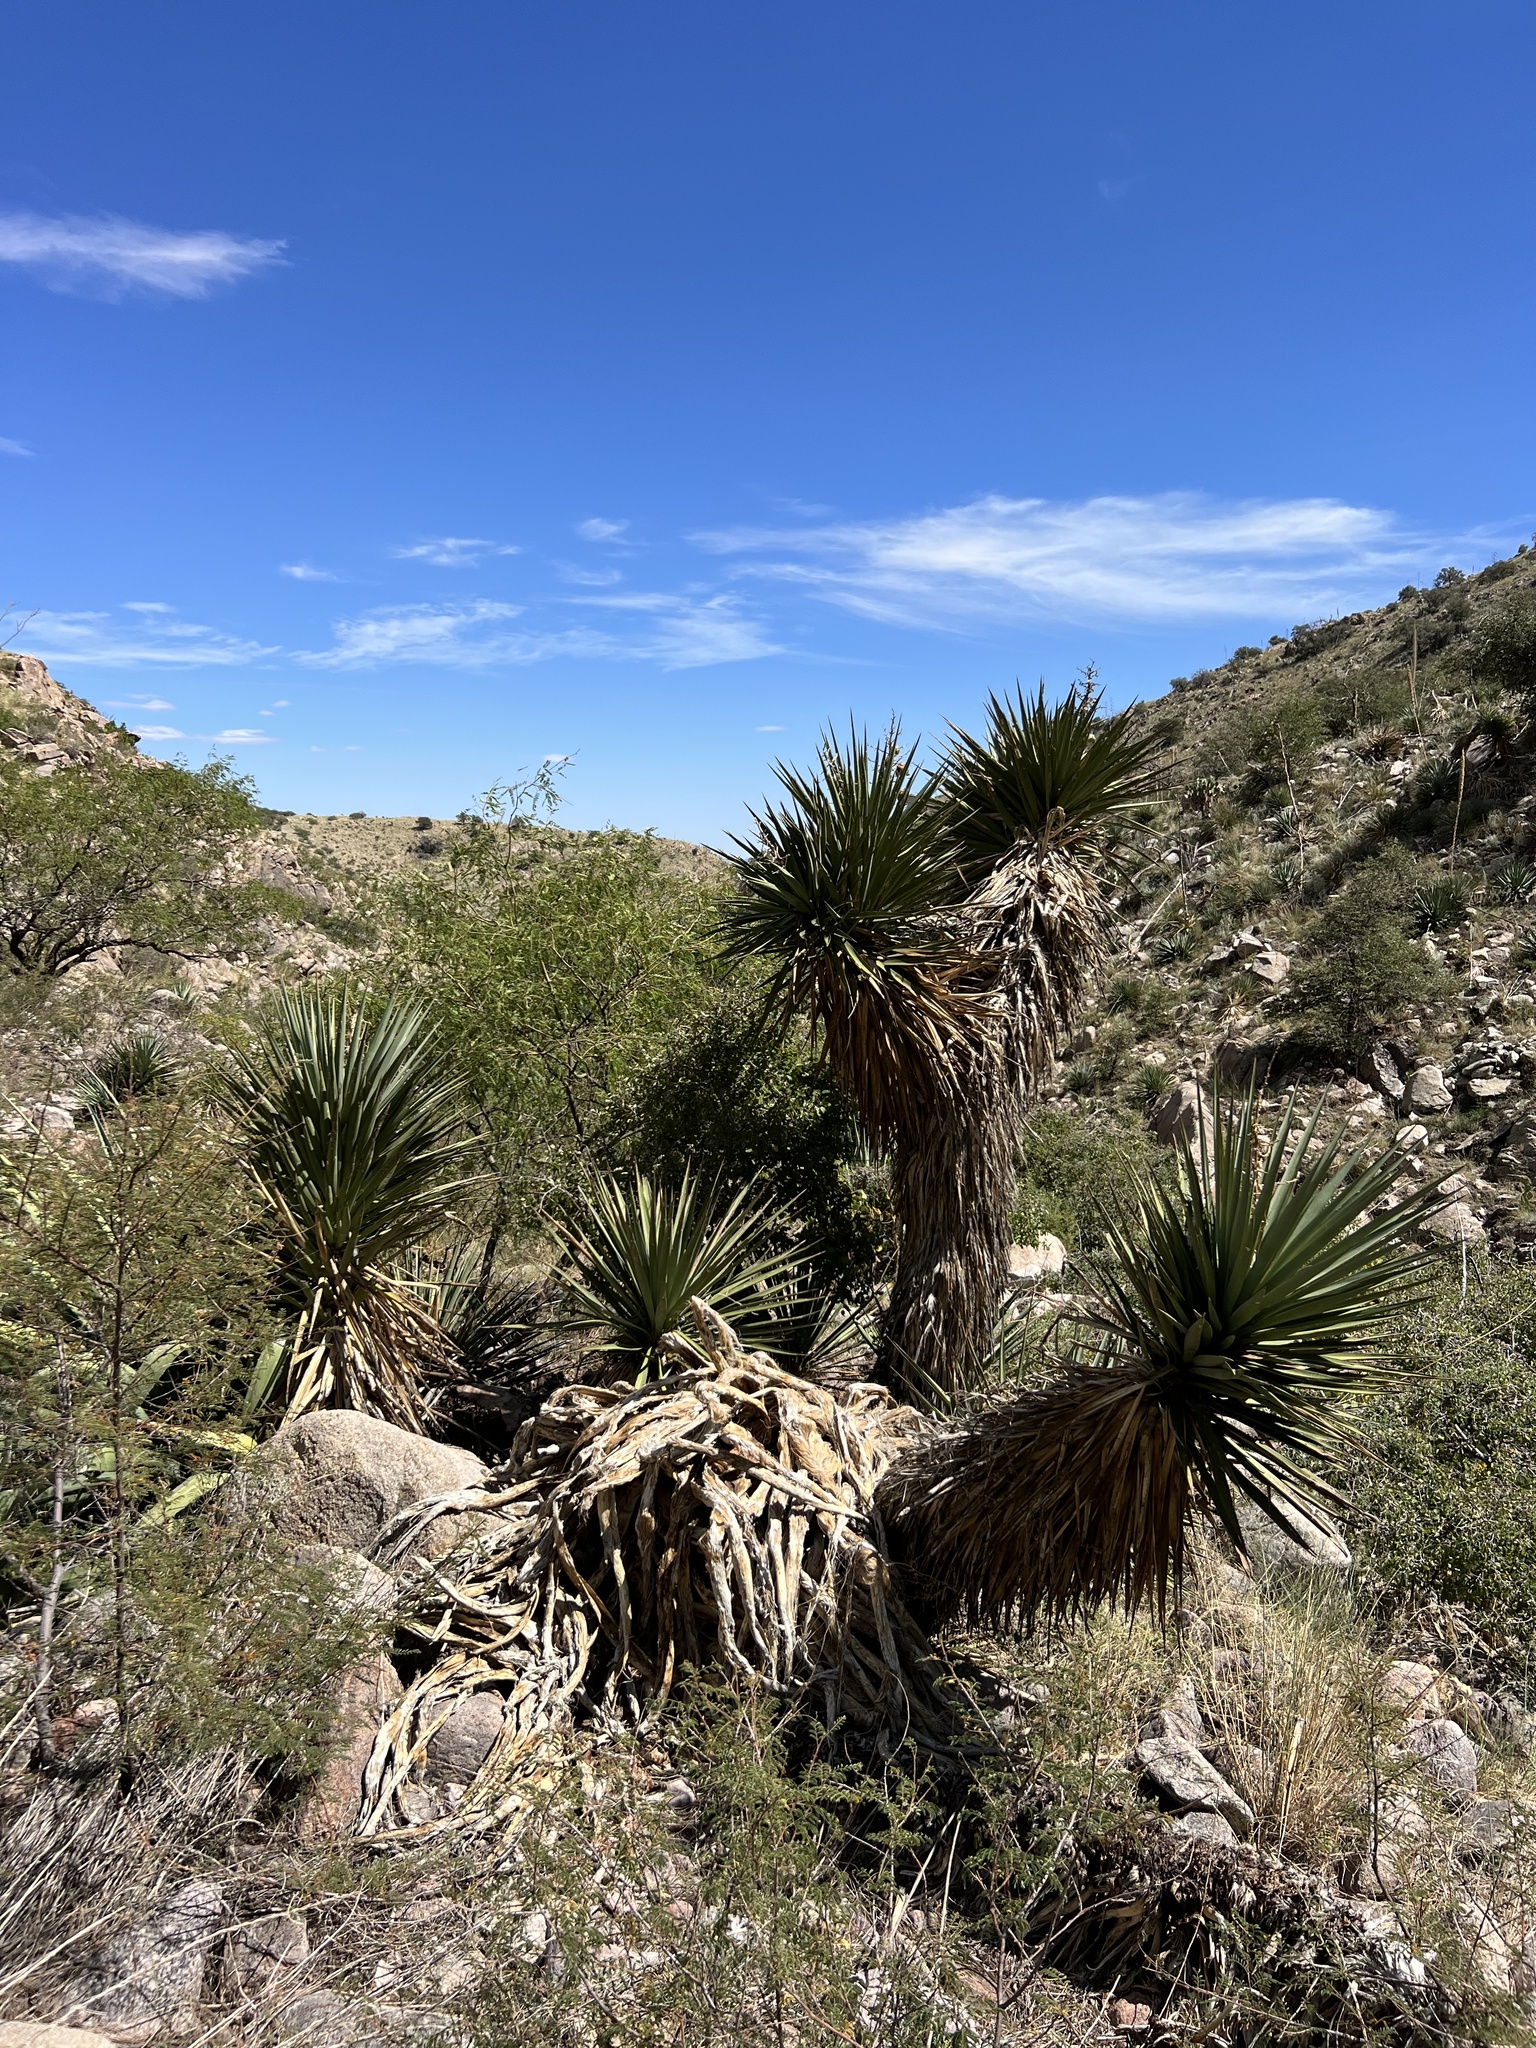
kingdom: Plantae
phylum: Tracheophyta
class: Liliopsida
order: Asparagales
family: Asparagaceae
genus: Yucca
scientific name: Yucca schottii
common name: Hoary yucca
